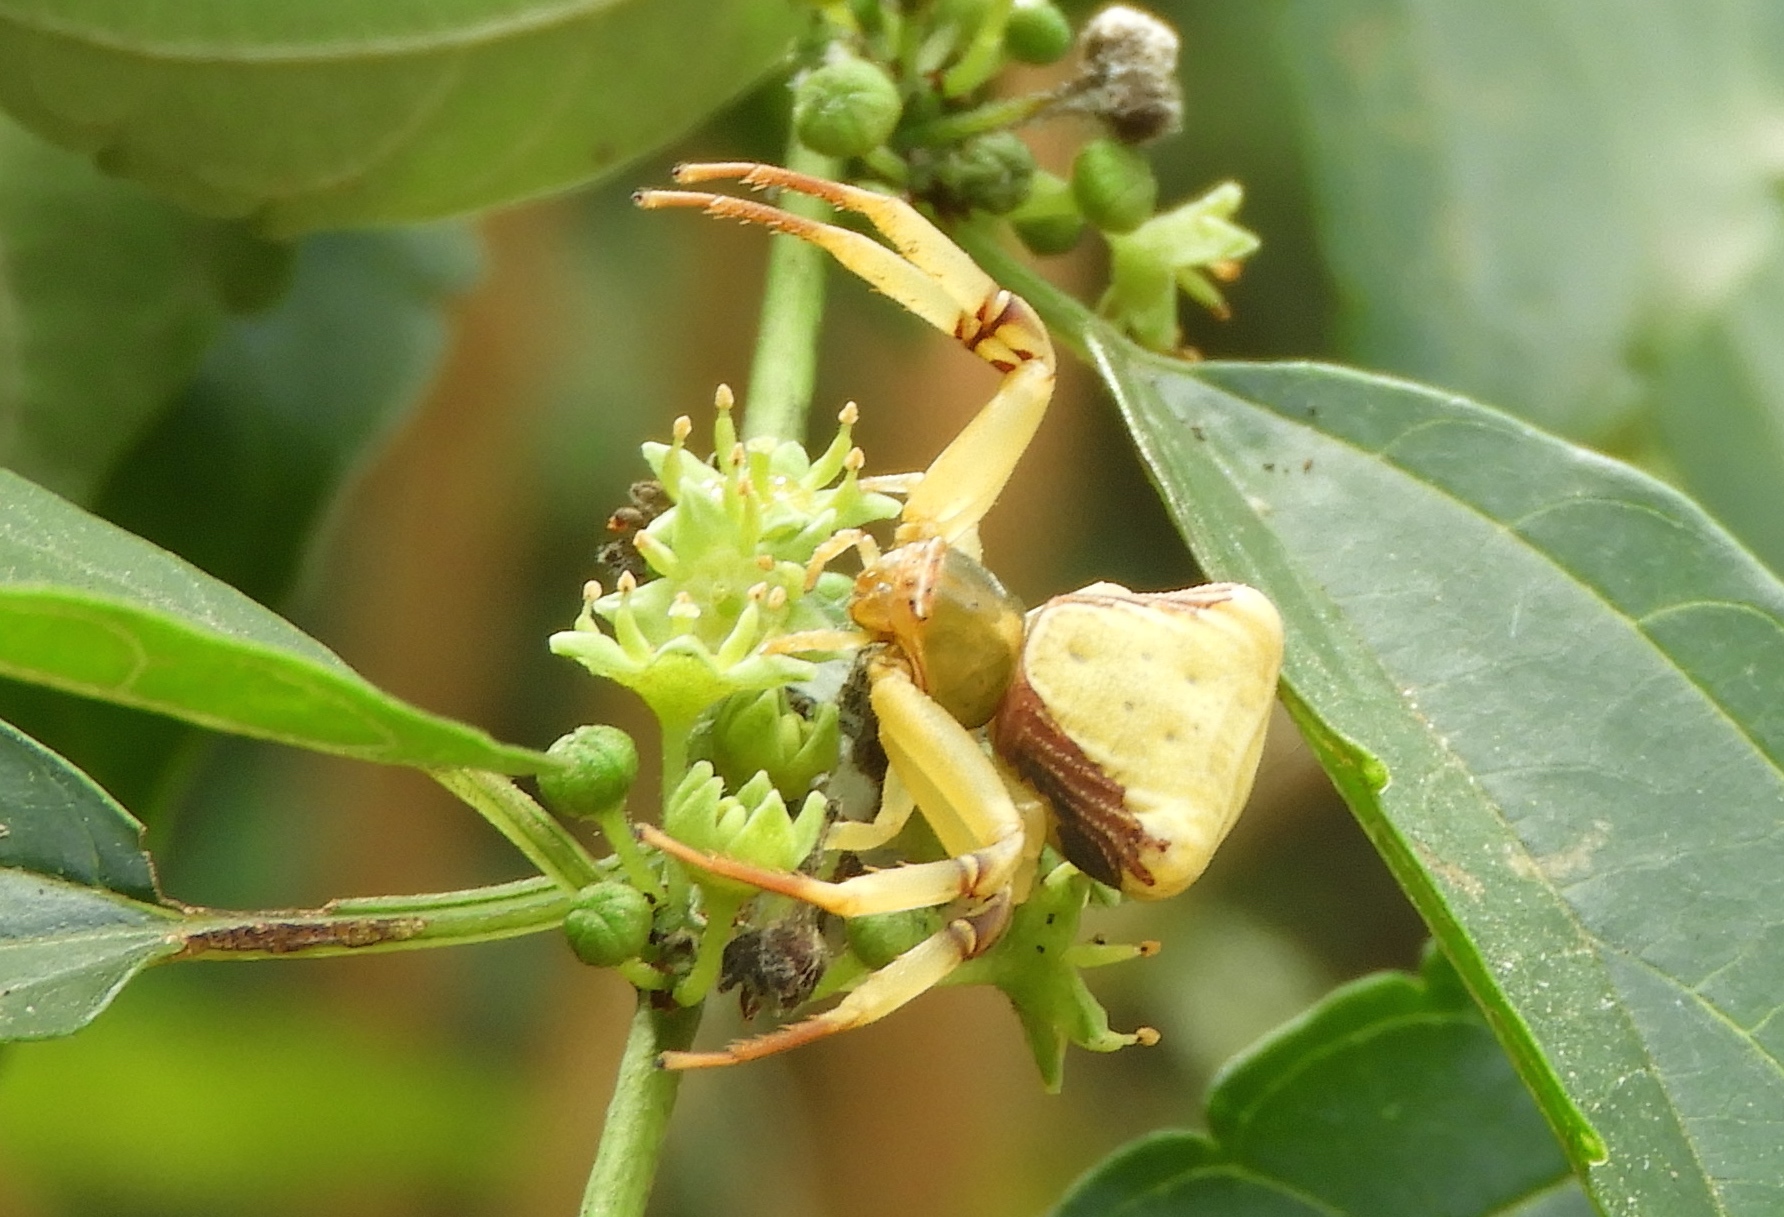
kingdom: Animalia
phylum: Arthropoda
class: Arachnida
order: Araneae
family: Thomisidae
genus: Misumenoides
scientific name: Misumenoides
